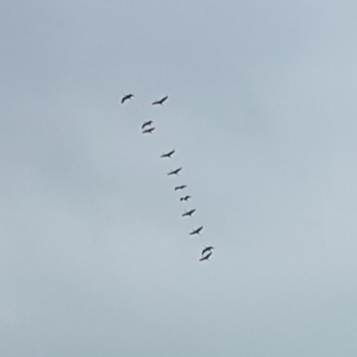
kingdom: Animalia
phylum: Chordata
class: Aves
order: Gruiformes
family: Gruidae
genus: Grus
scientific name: Grus grus
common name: Common crane
